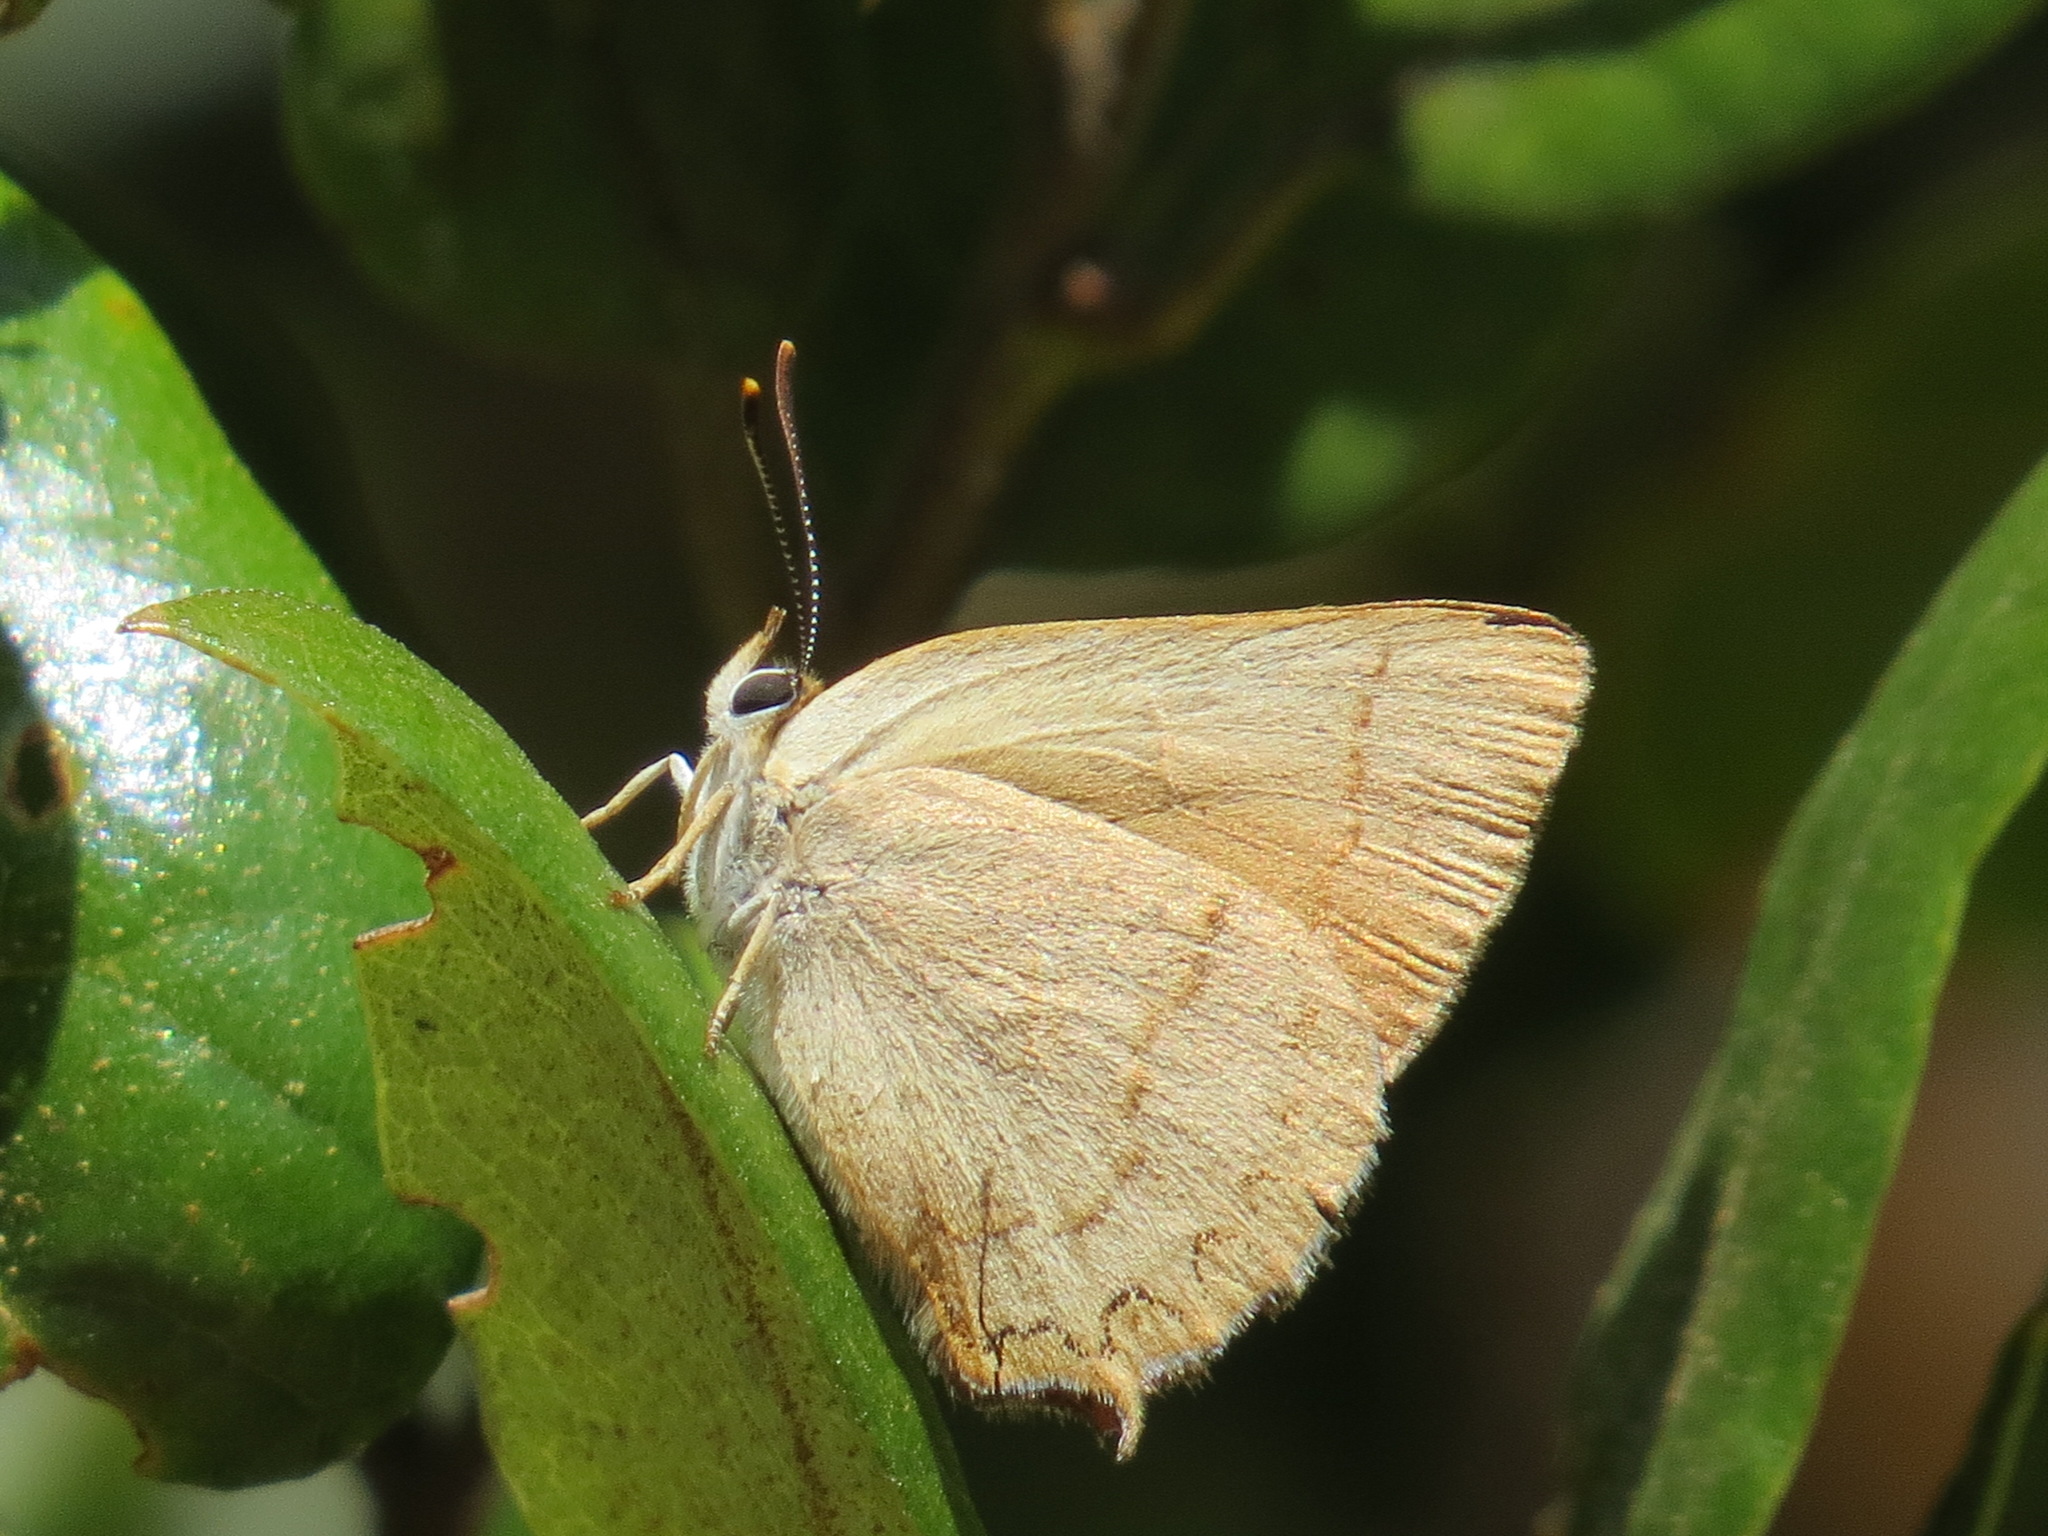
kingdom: Animalia
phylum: Arthropoda
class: Insecta
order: Lepidoptera
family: Lycaenidae
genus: Habrodais
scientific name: Habrodais grunus
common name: Golden hairstreak
